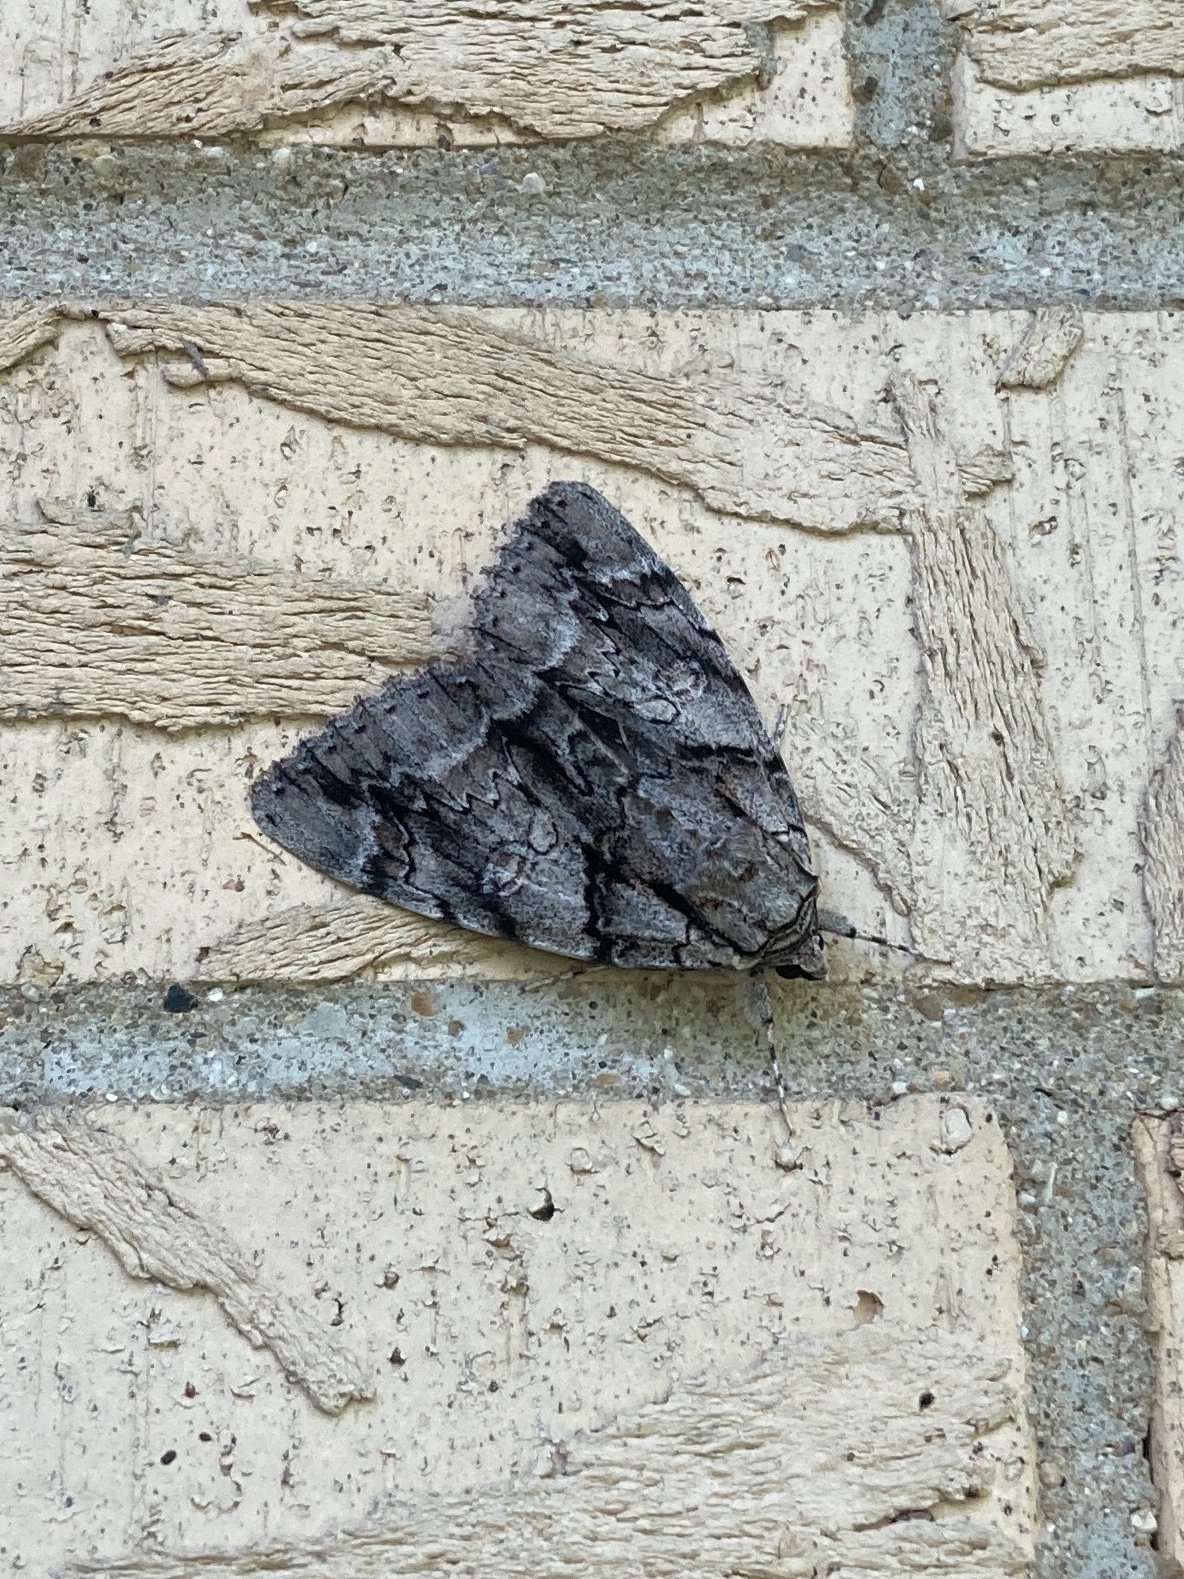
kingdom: Animalia
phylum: Arthropoda
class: Insecta
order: Lepidoptera
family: Erebidae
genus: Catocala
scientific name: Catocala vidua
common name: The widow
